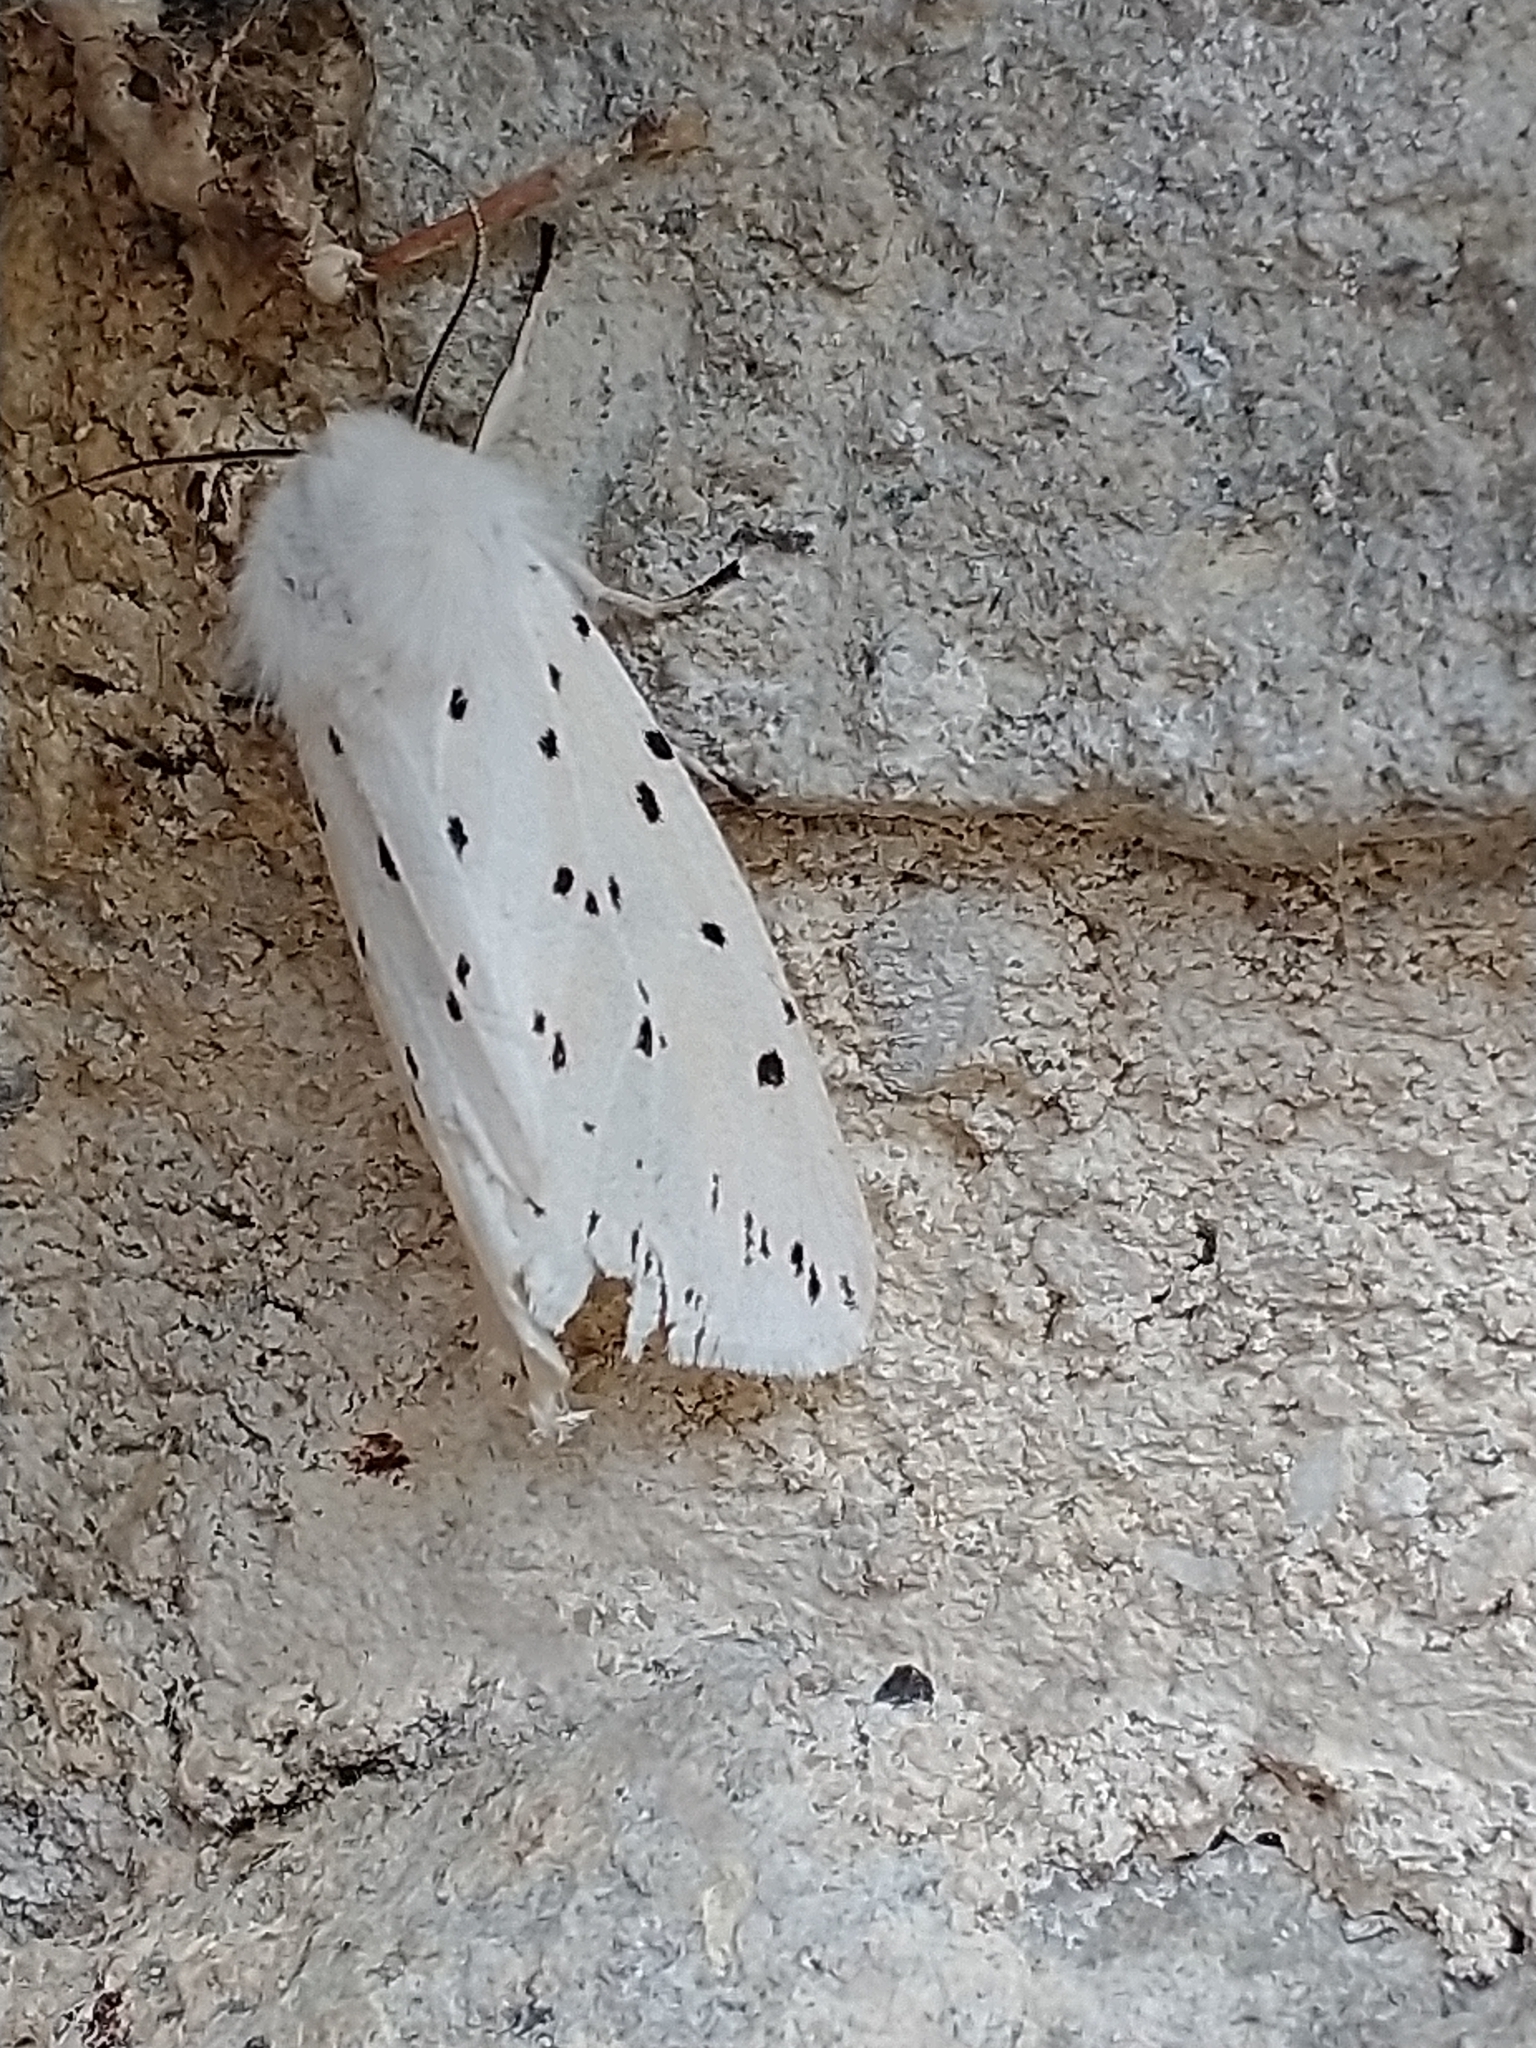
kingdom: Animalia
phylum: Arthropoda
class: Insecta
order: Lepidoptera
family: Erebidae
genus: Spilosoma
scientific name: Spilosoma lubricipeda
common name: White ermine
